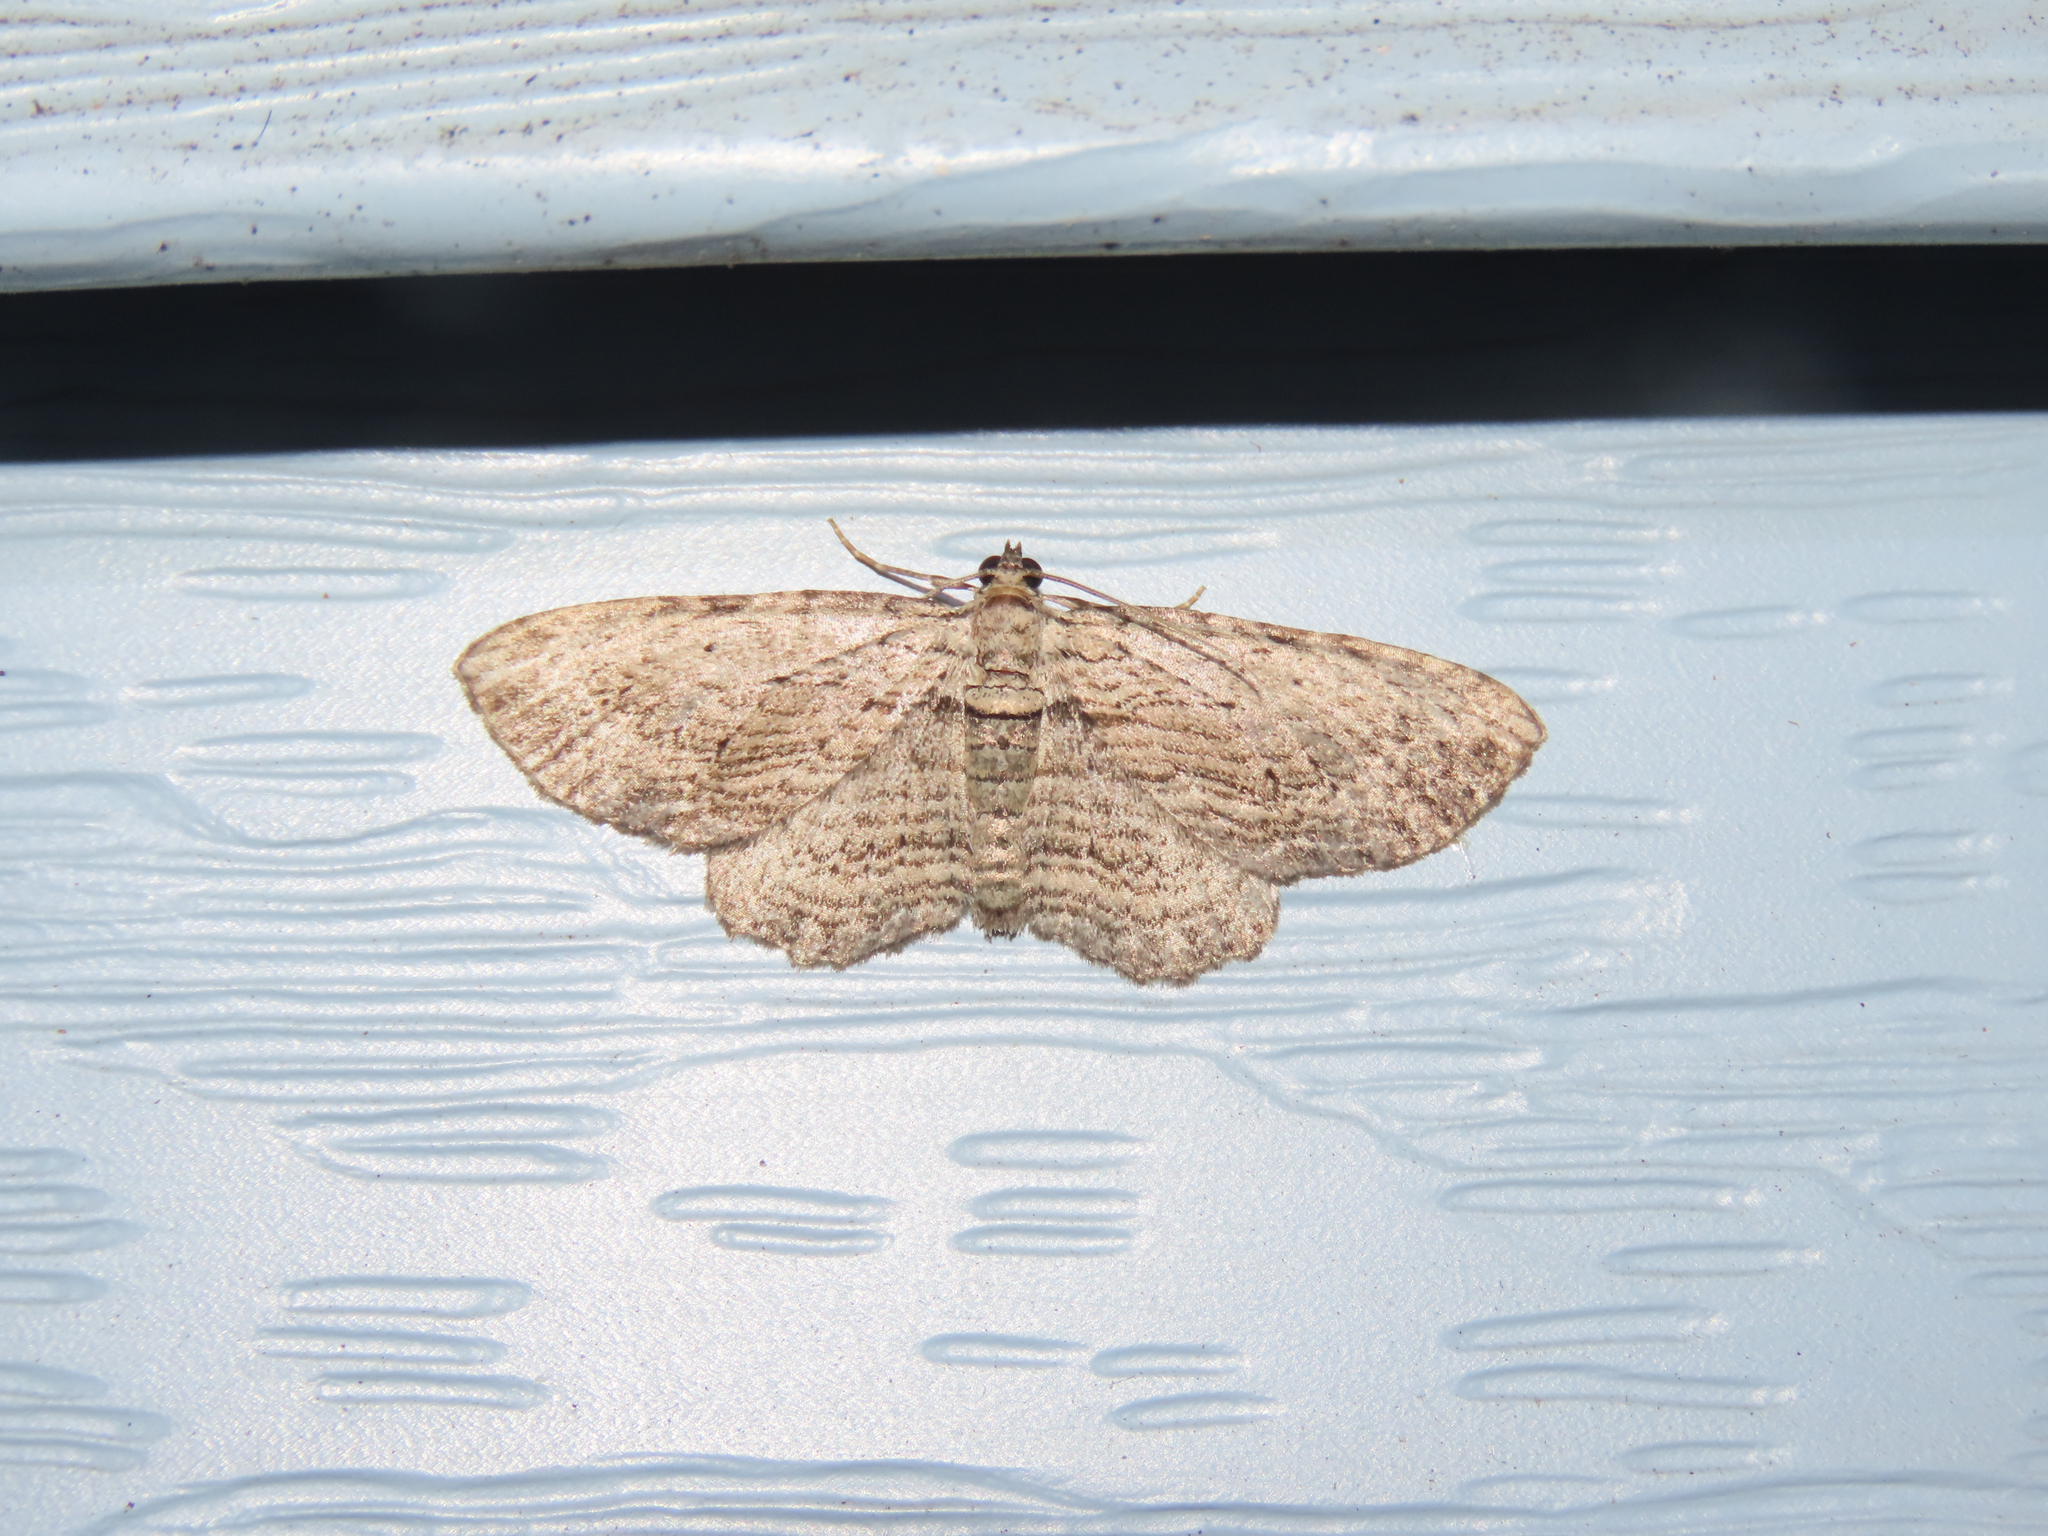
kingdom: Animalia
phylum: Arthropoda
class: Insecta
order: Lepidoptera
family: Geometridae
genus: Horisme
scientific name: Horisme intestinata
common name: Brown bark carpet
